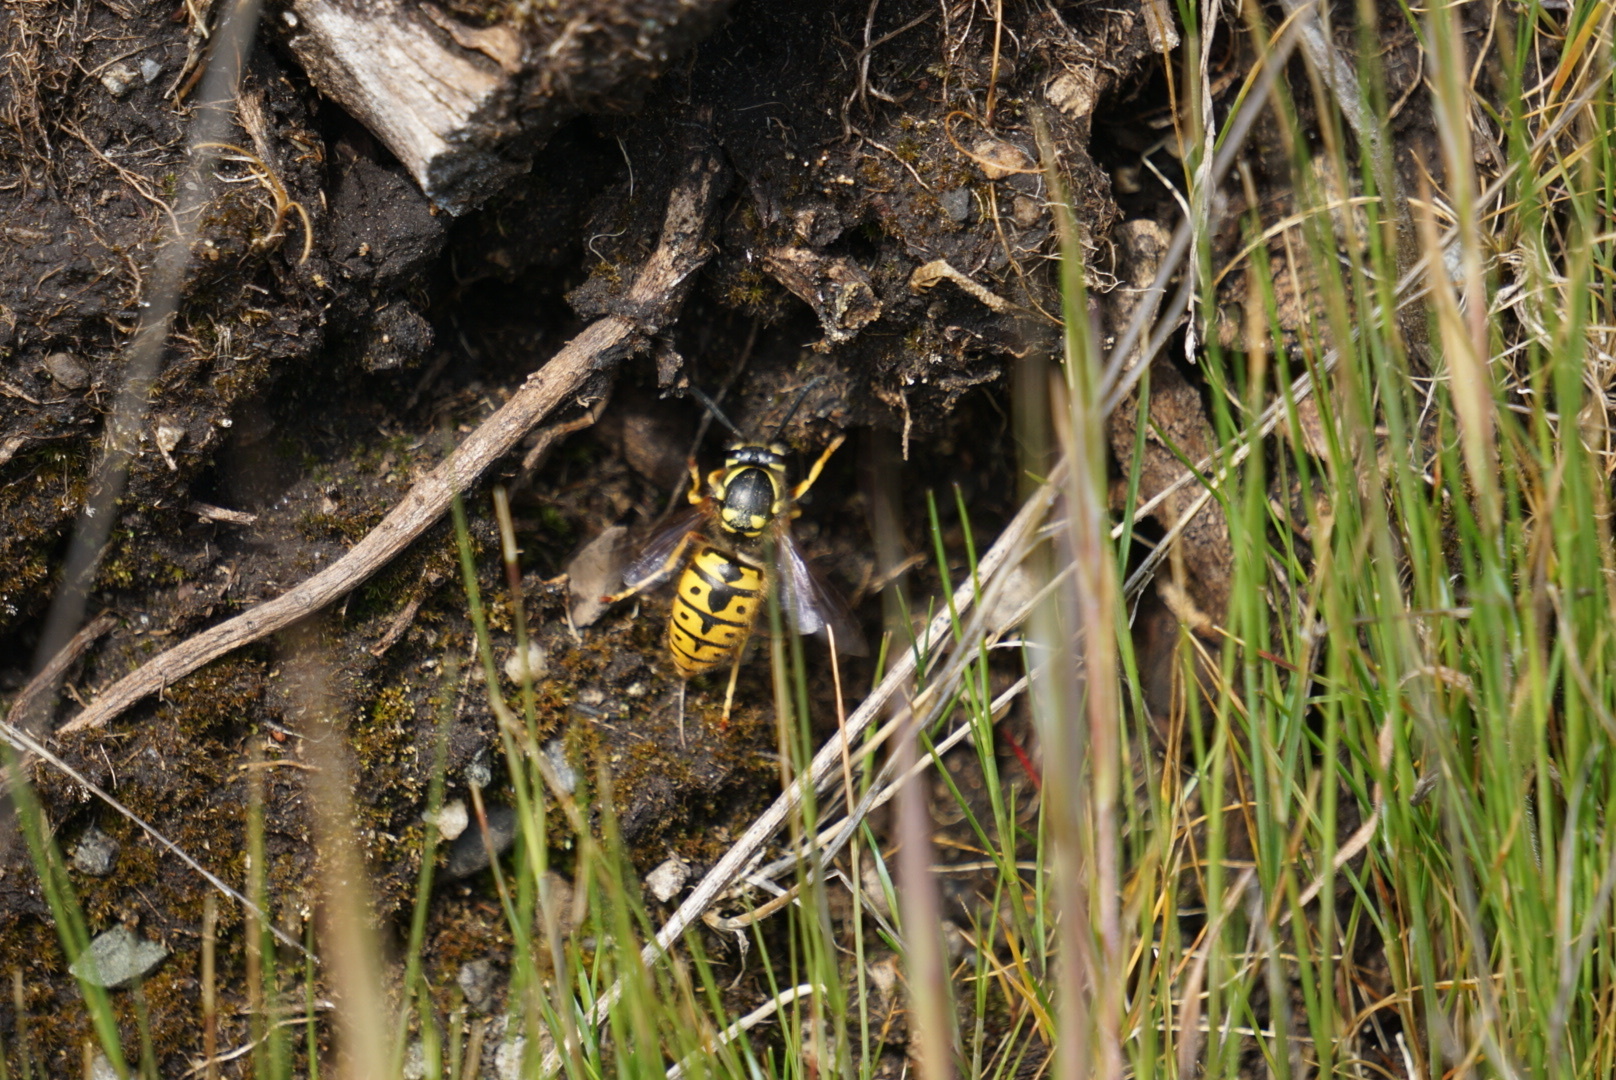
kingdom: Animalia
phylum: Arthropoda
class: Insecta
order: Hymenoptera
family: Vespidae
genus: Vespula
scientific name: Vespula germanica
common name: German wasp
